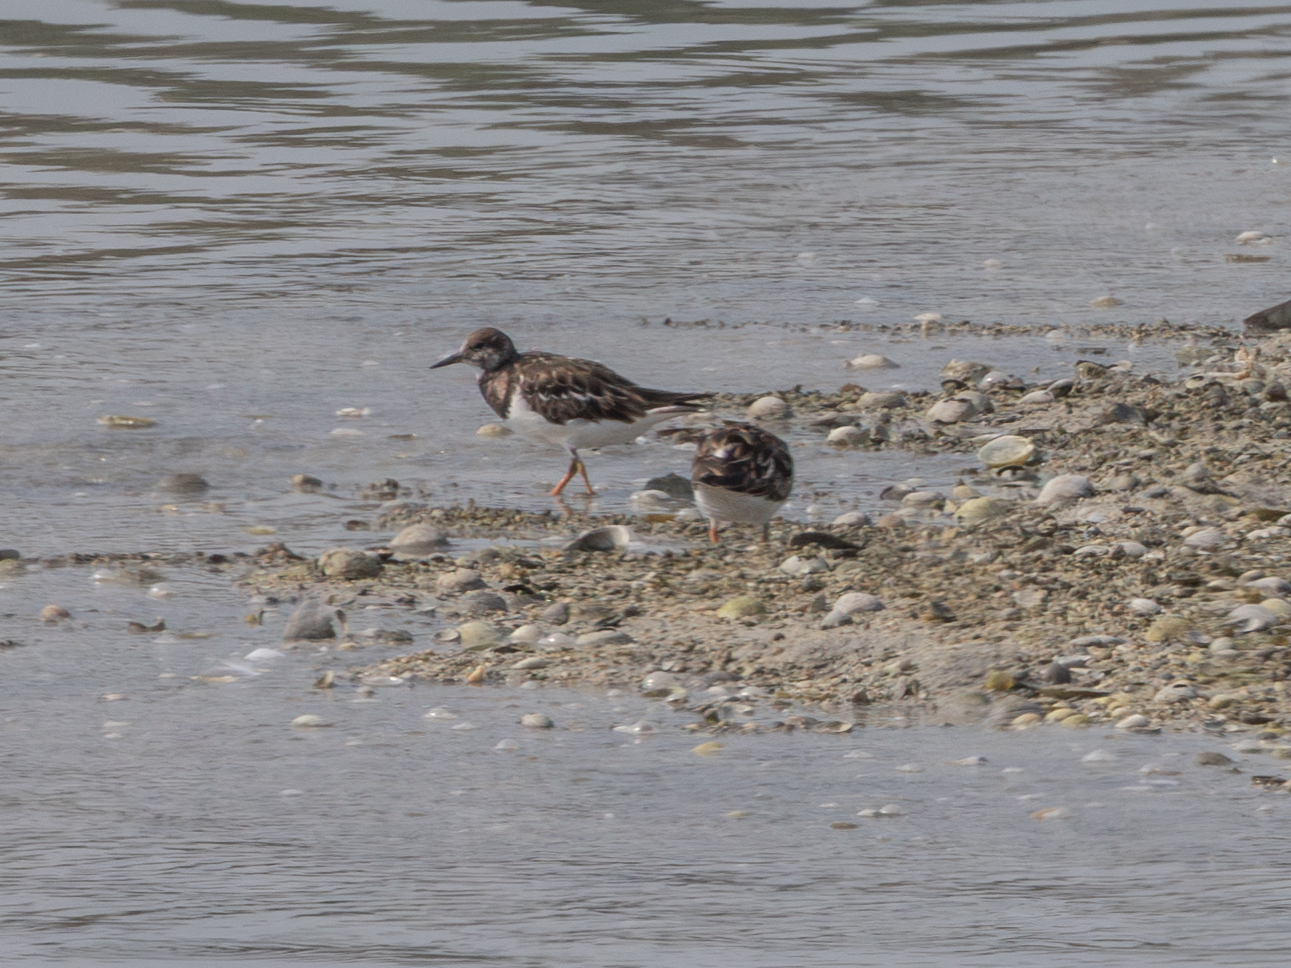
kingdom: Animalia
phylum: Chordata
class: Aves
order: Charadriiformes
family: Scolopacidae
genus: Arenaria
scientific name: Arenaria interpres
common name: Ruddy turnstone
